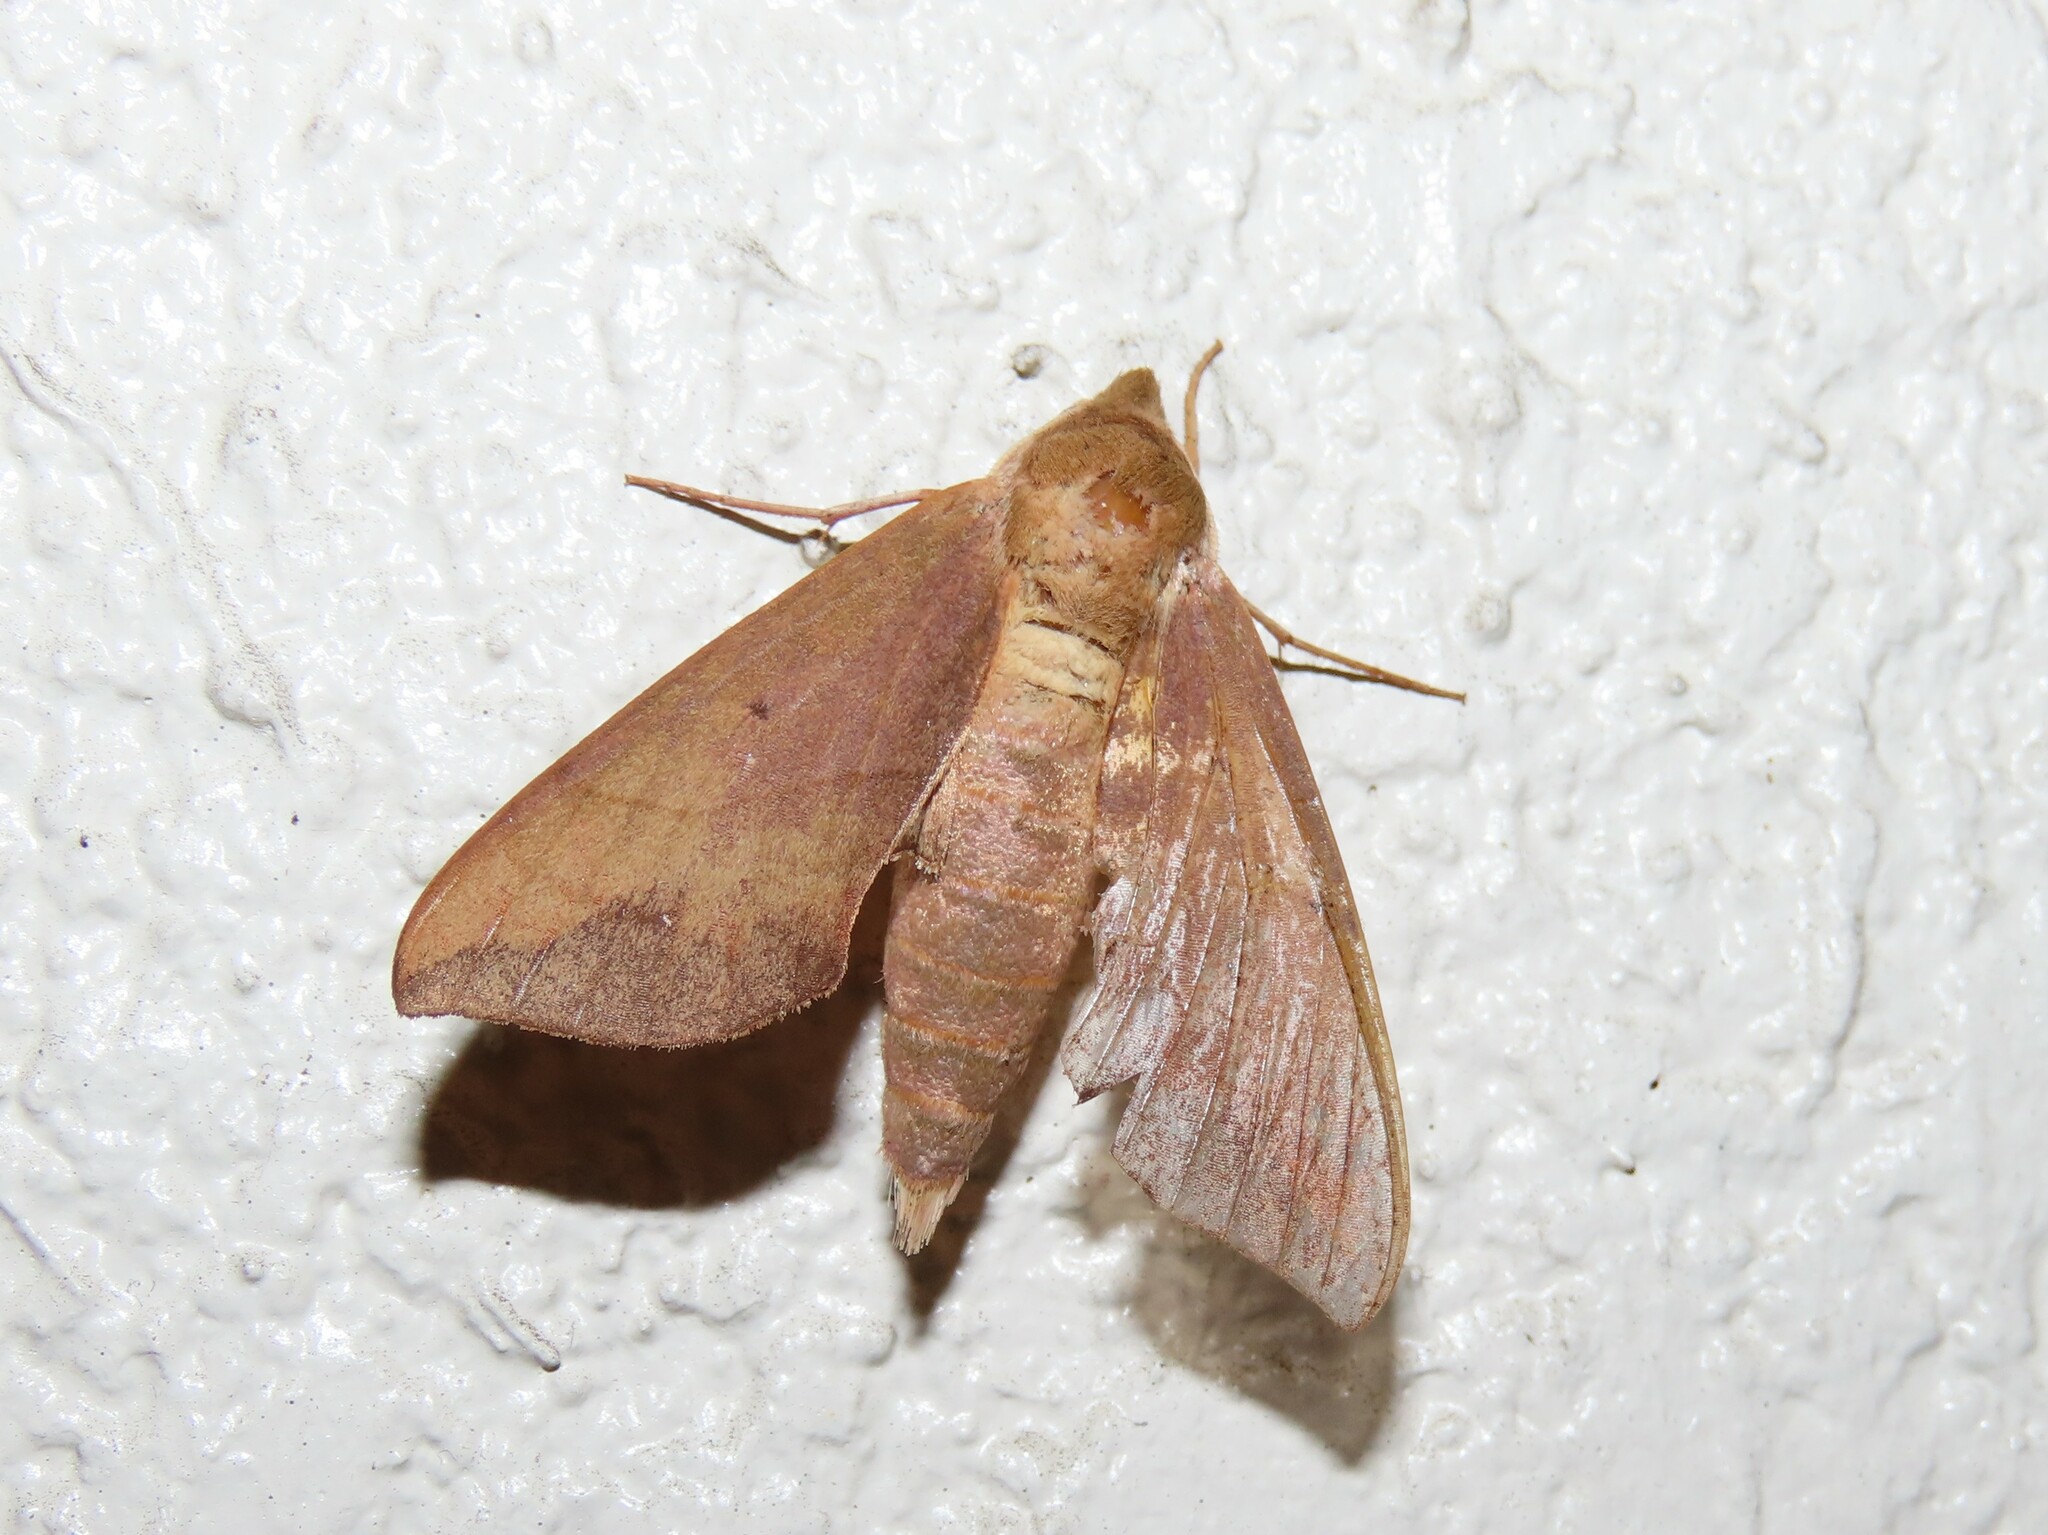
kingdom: Animalia
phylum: Arthropoda
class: Insecta
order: Lepidoptera
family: Sphingidae
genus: Darapsa
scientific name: Darapsa myron
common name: Hog sphinx
